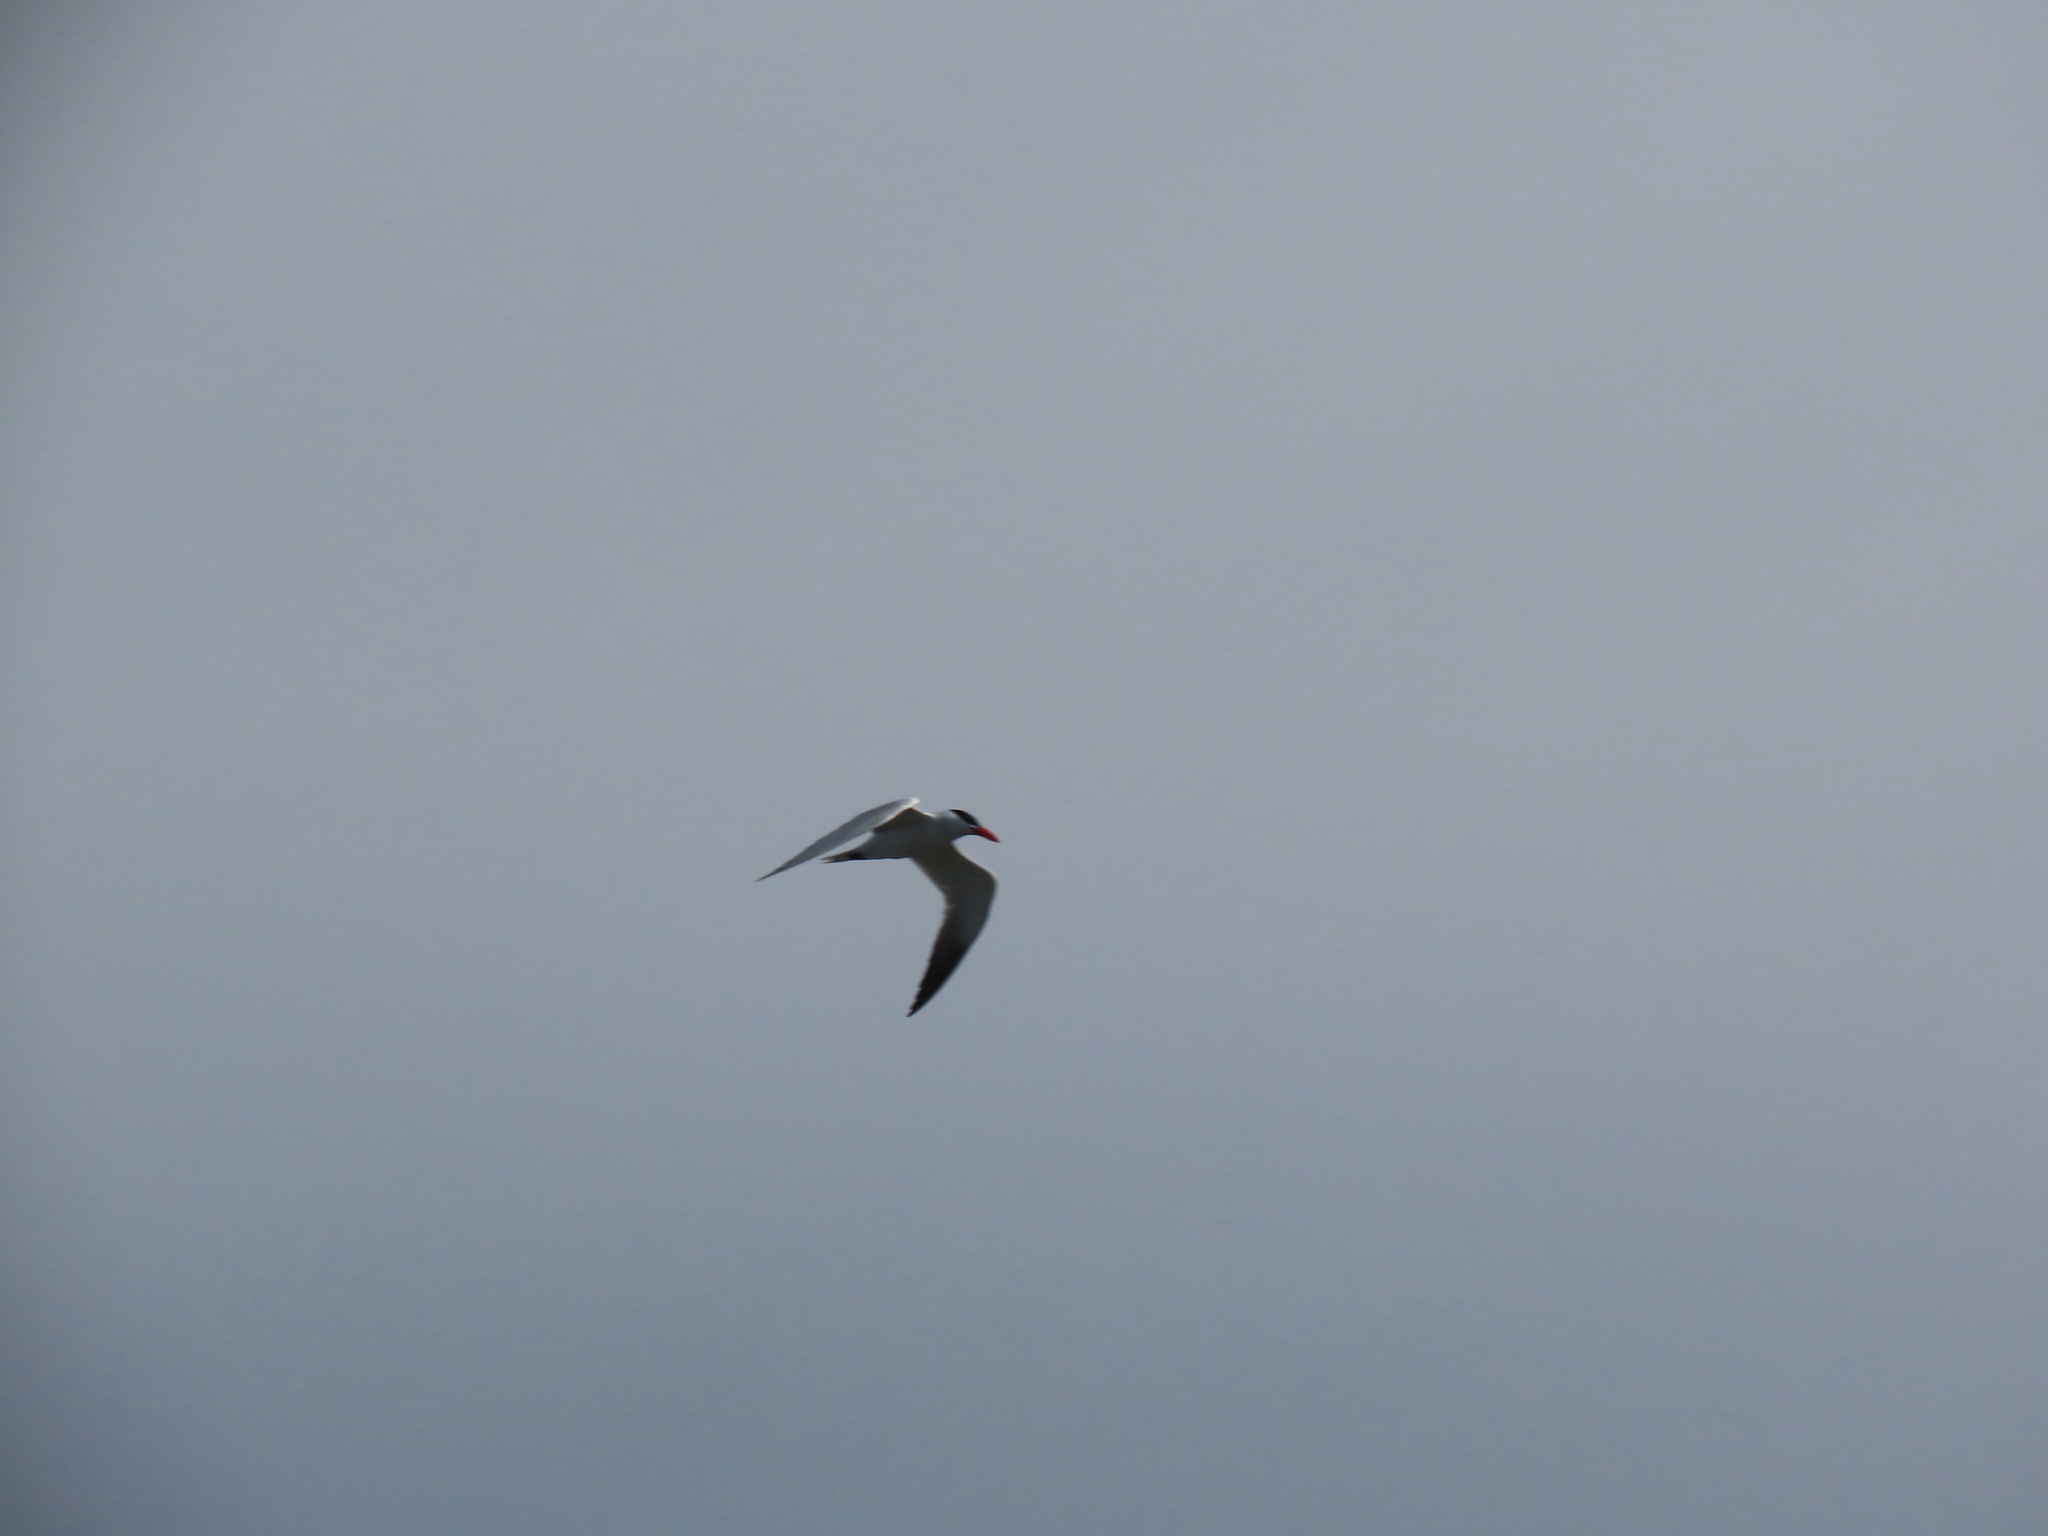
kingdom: Animalia
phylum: Chordata
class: Aves
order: Charadriiformes
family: Laridae
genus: Hydroprogne
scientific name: Hydroprogne caspia
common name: Caspian tern
